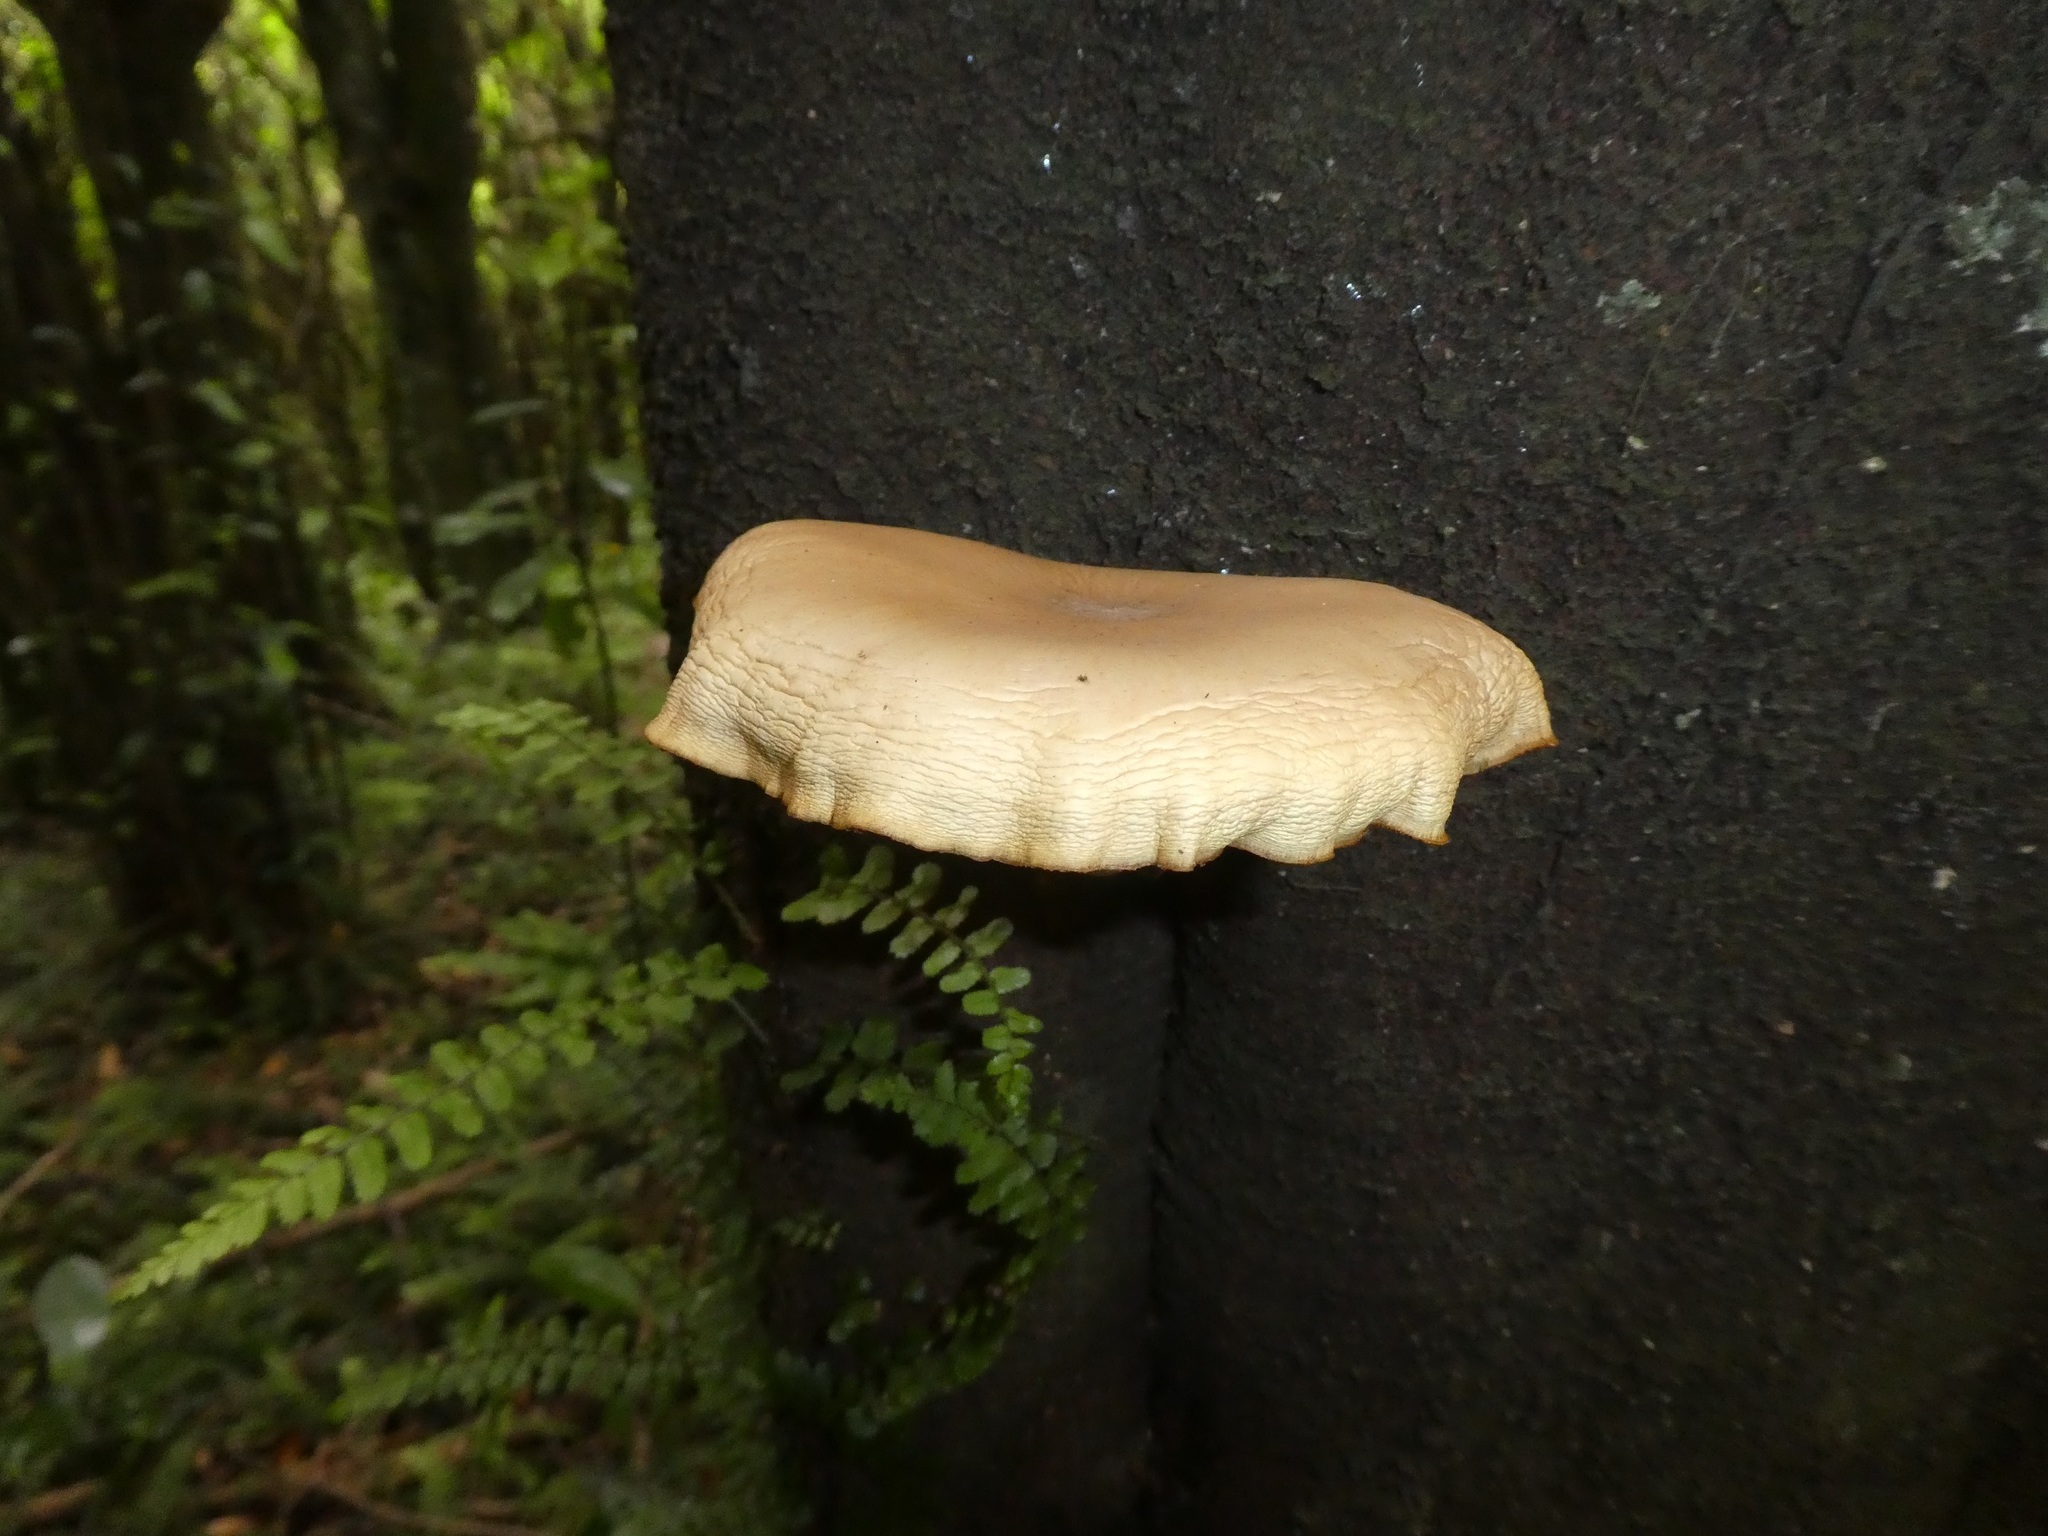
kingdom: Fungi
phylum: Basidiomycota
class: Agaricomycetes
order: Agaricales
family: Tubariaceae
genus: Cyclocybe
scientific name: Cyclocybe parasitica
